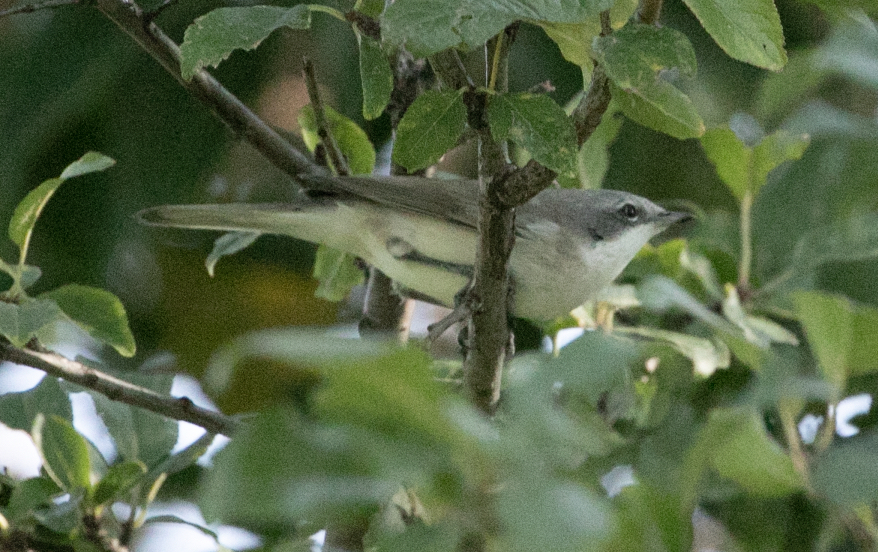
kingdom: Animalia
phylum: Chordata
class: Aves
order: Passeriformes
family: Sylviidae
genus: Sylvia
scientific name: Sylvia curruca
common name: Lesser whitethroat
